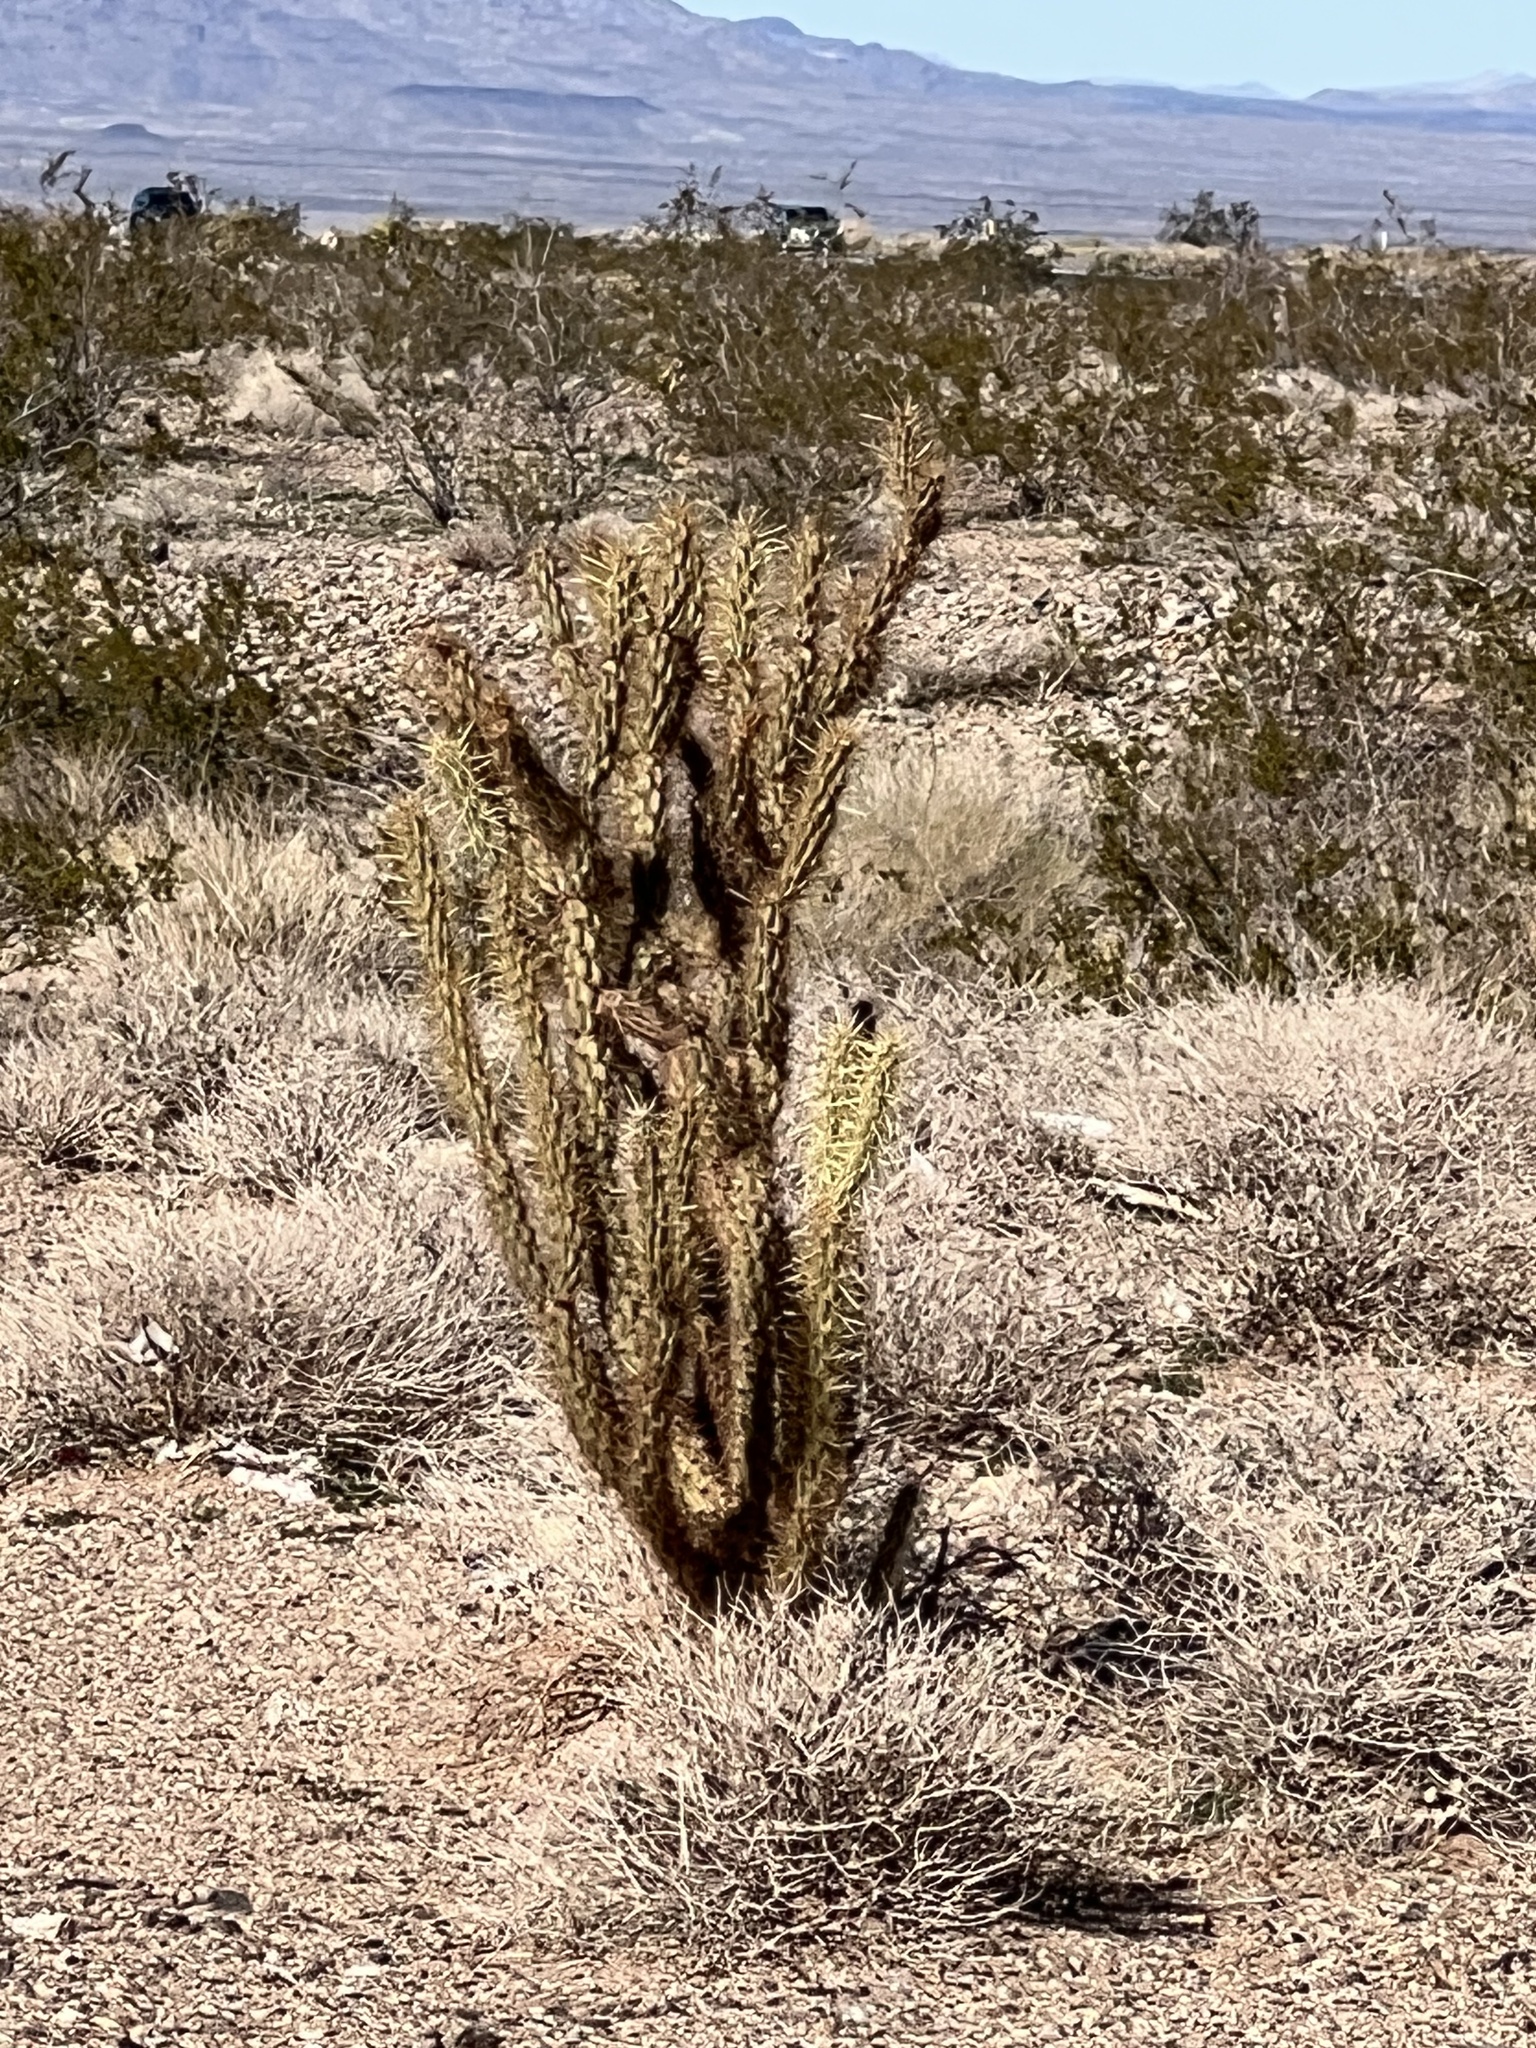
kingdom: Plantae
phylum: Tracheophyta
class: Magnoliopsida
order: Caryophyllales
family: Cactaceae
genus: Cylindropuntia
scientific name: Cylindropuntia acanthocarpa
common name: Buckhorn cholla
